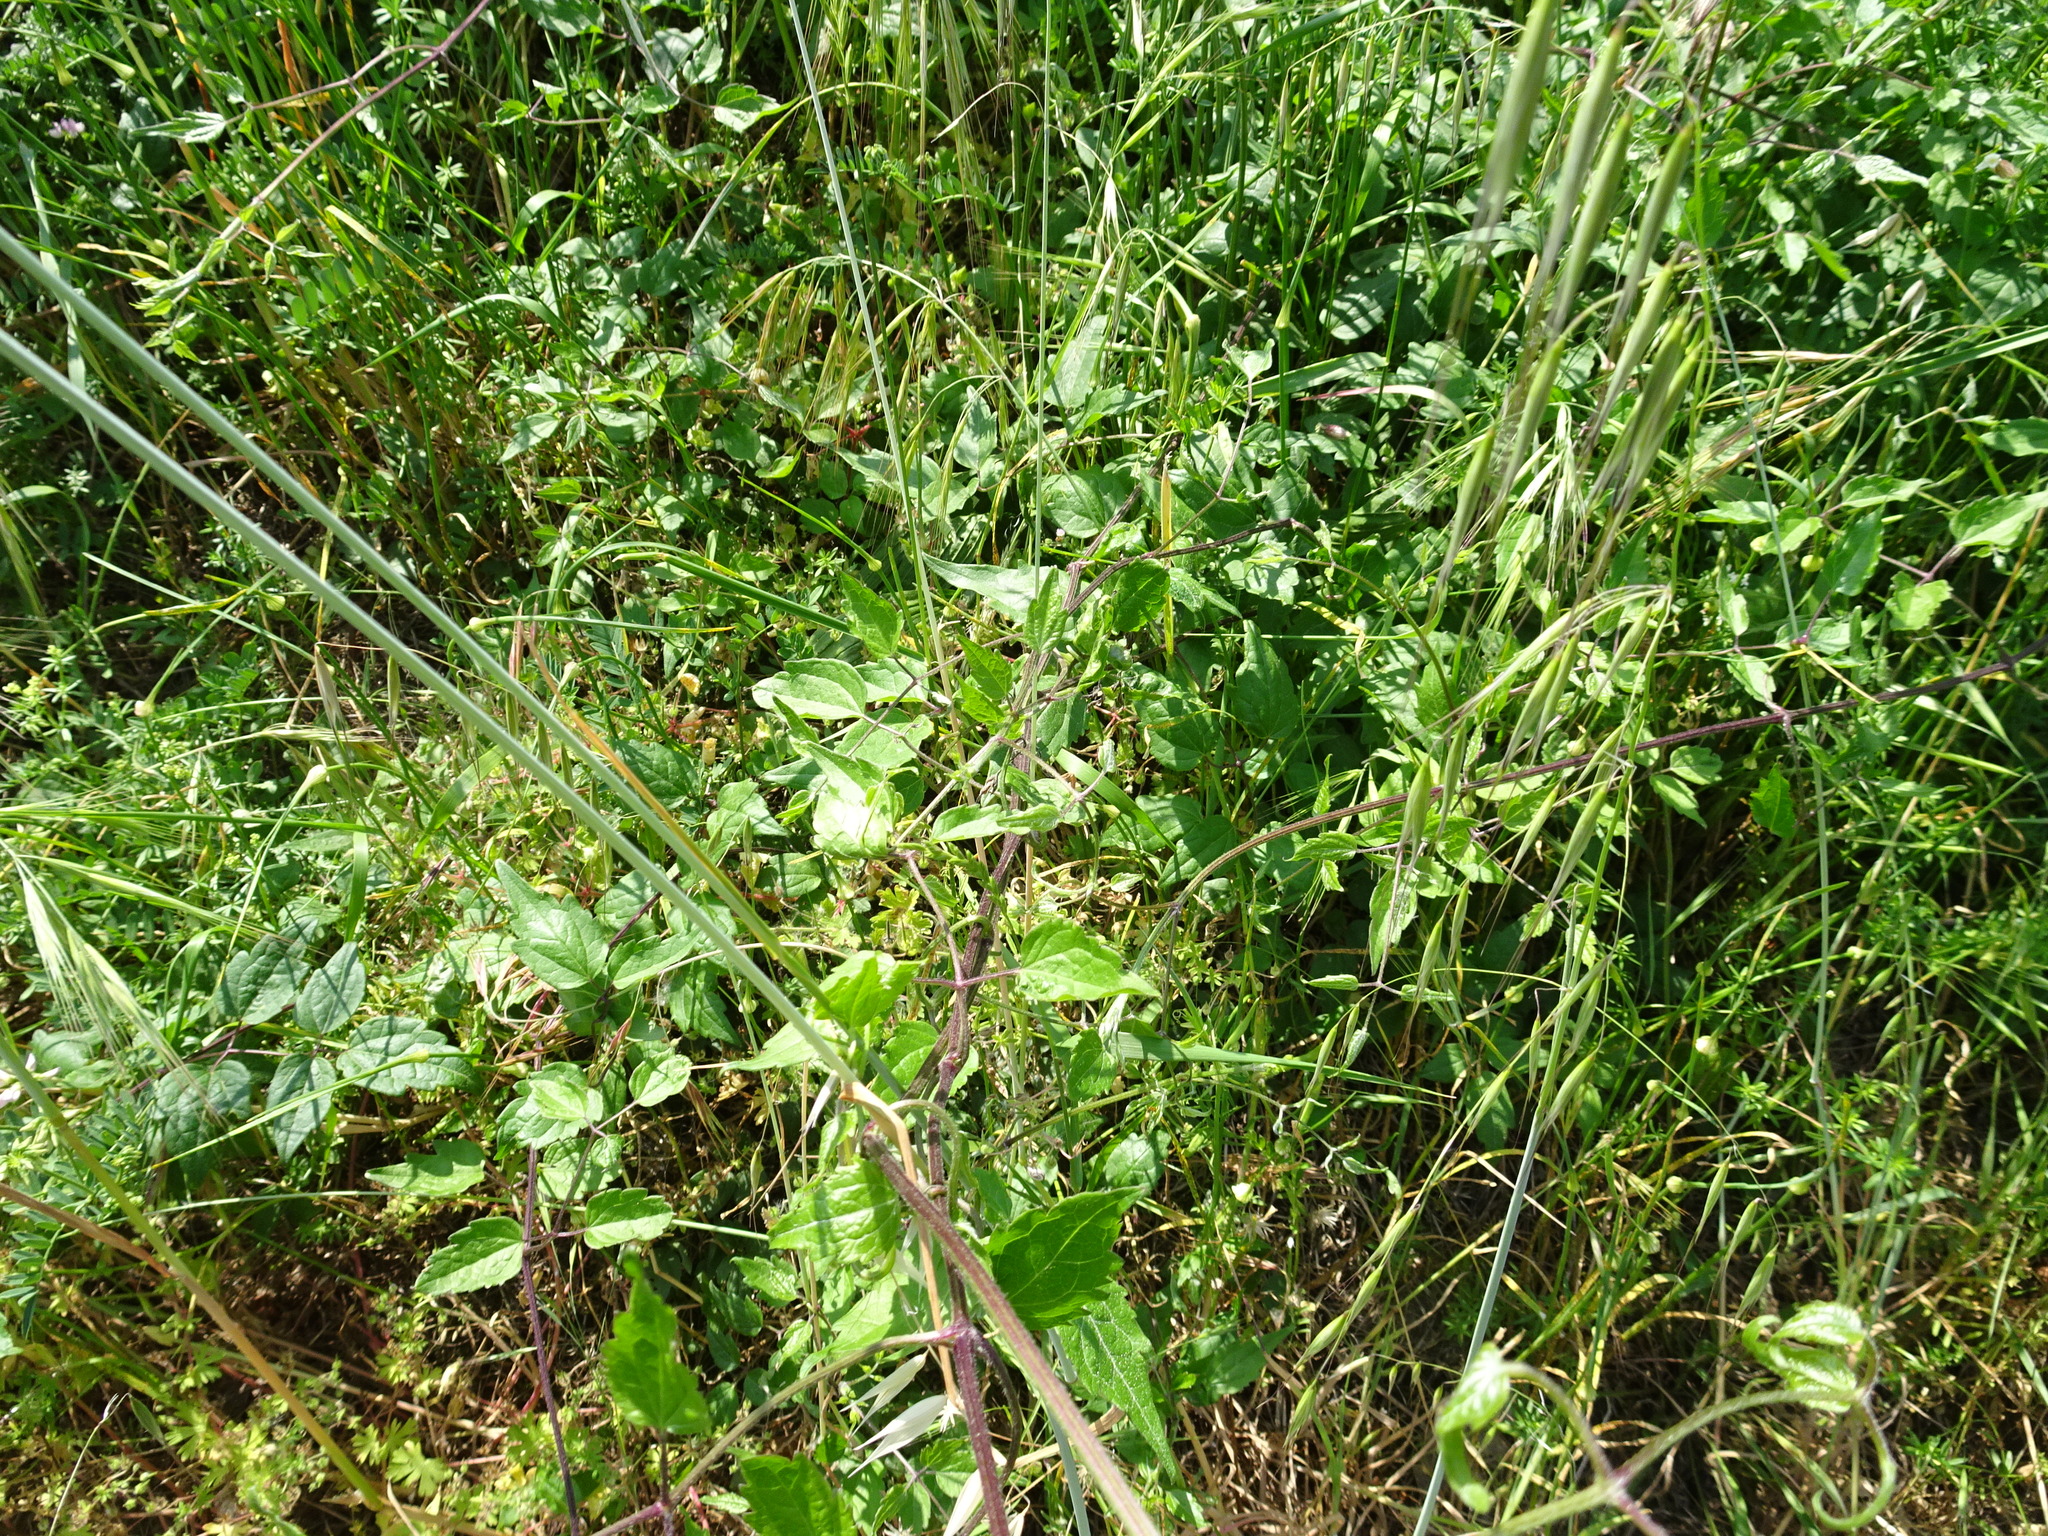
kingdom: Plantae
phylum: Tracheophyta
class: Magnoliopsida
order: Ranunculales
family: Ranunculaceae
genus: Clematis
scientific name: Clematis vitalba
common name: Evergreen clematis
